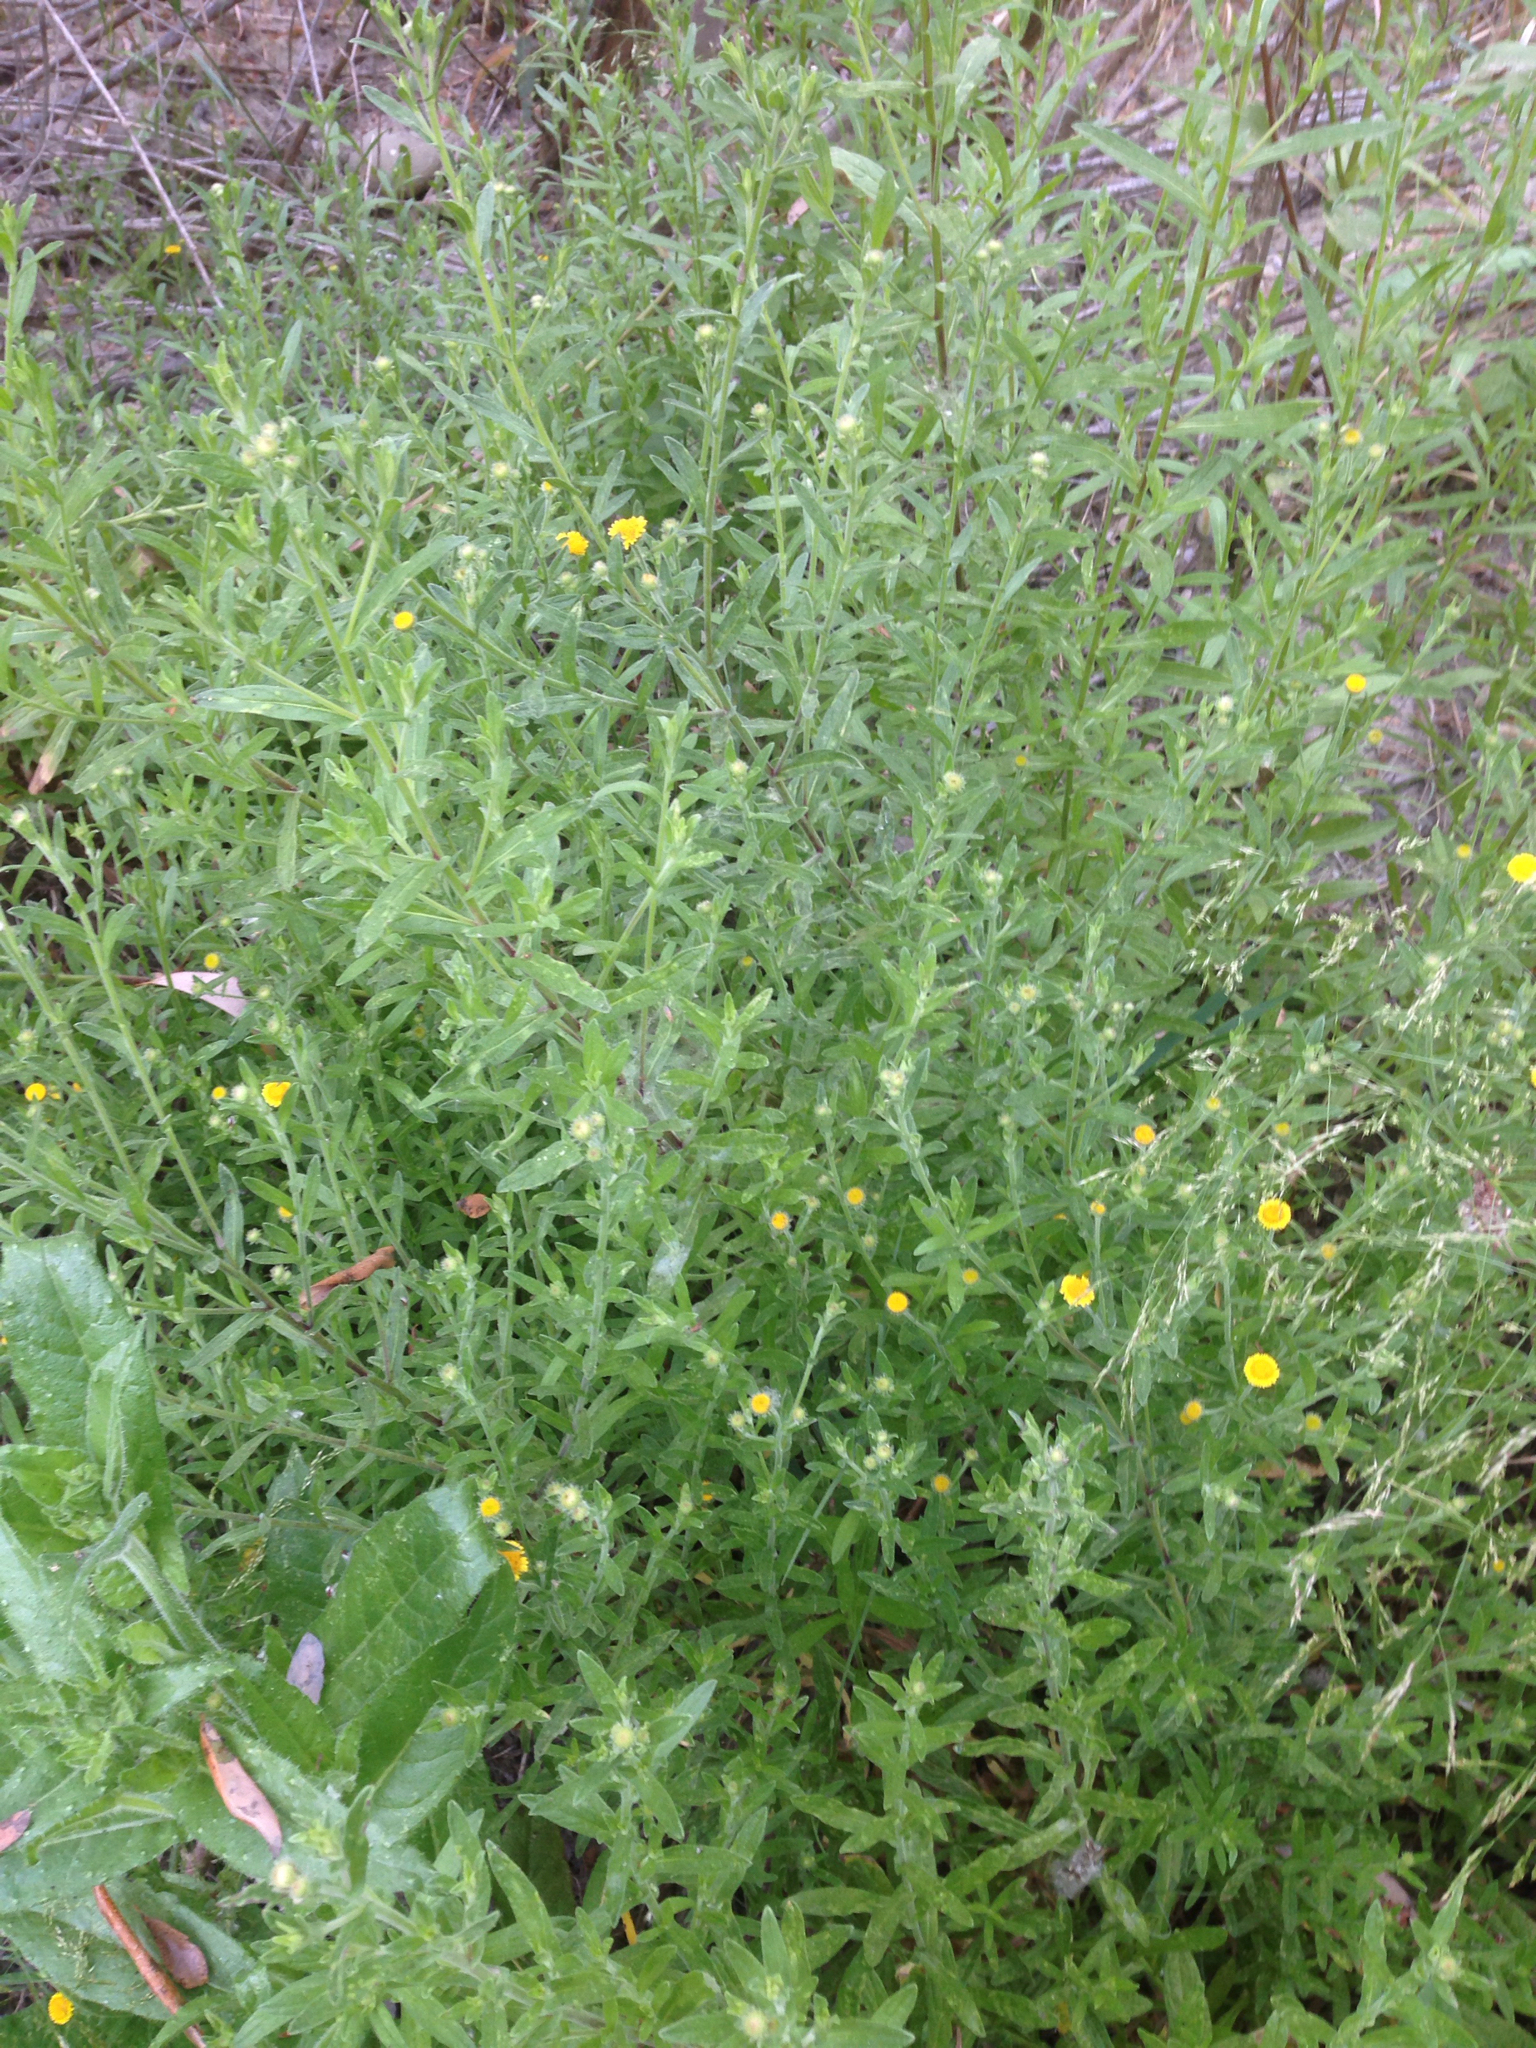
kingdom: Plantae
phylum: Tracheophyta
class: Magnoliopsida
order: Asterales
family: Asteraceae
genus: Pulicaria
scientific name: Pulicaria paludosa
